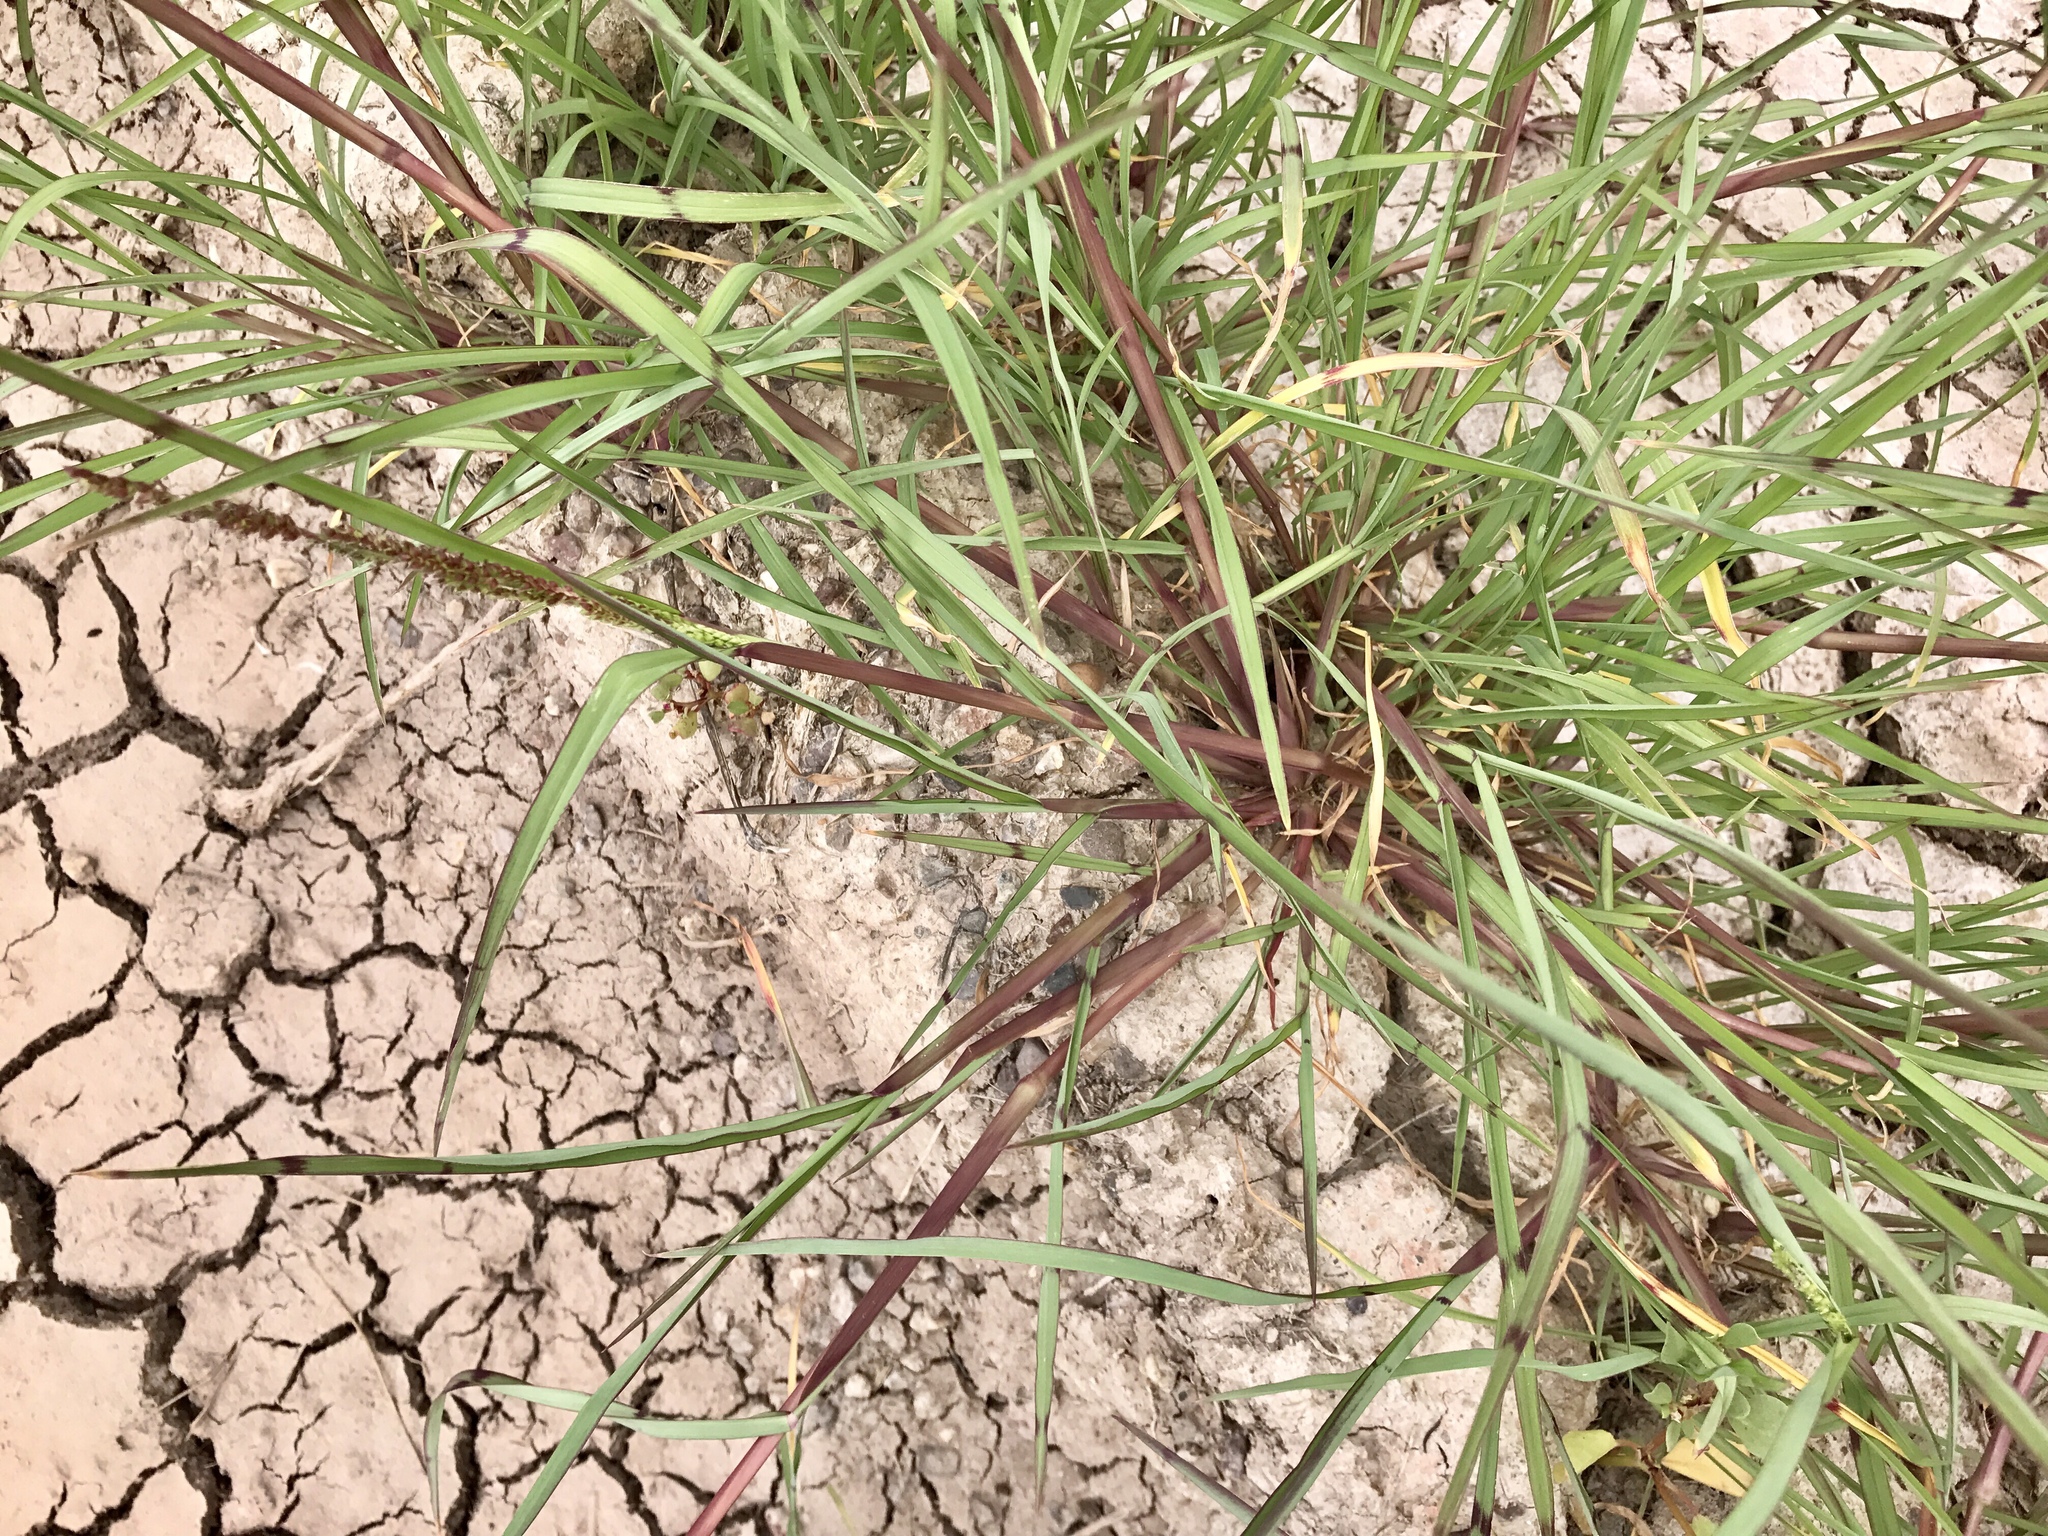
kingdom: Plantae
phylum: Tracheophyta
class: Liliopsida
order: Poales
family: Poaceae
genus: Echinochloa
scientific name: Echinochloa crus-galli
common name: Cockspur
